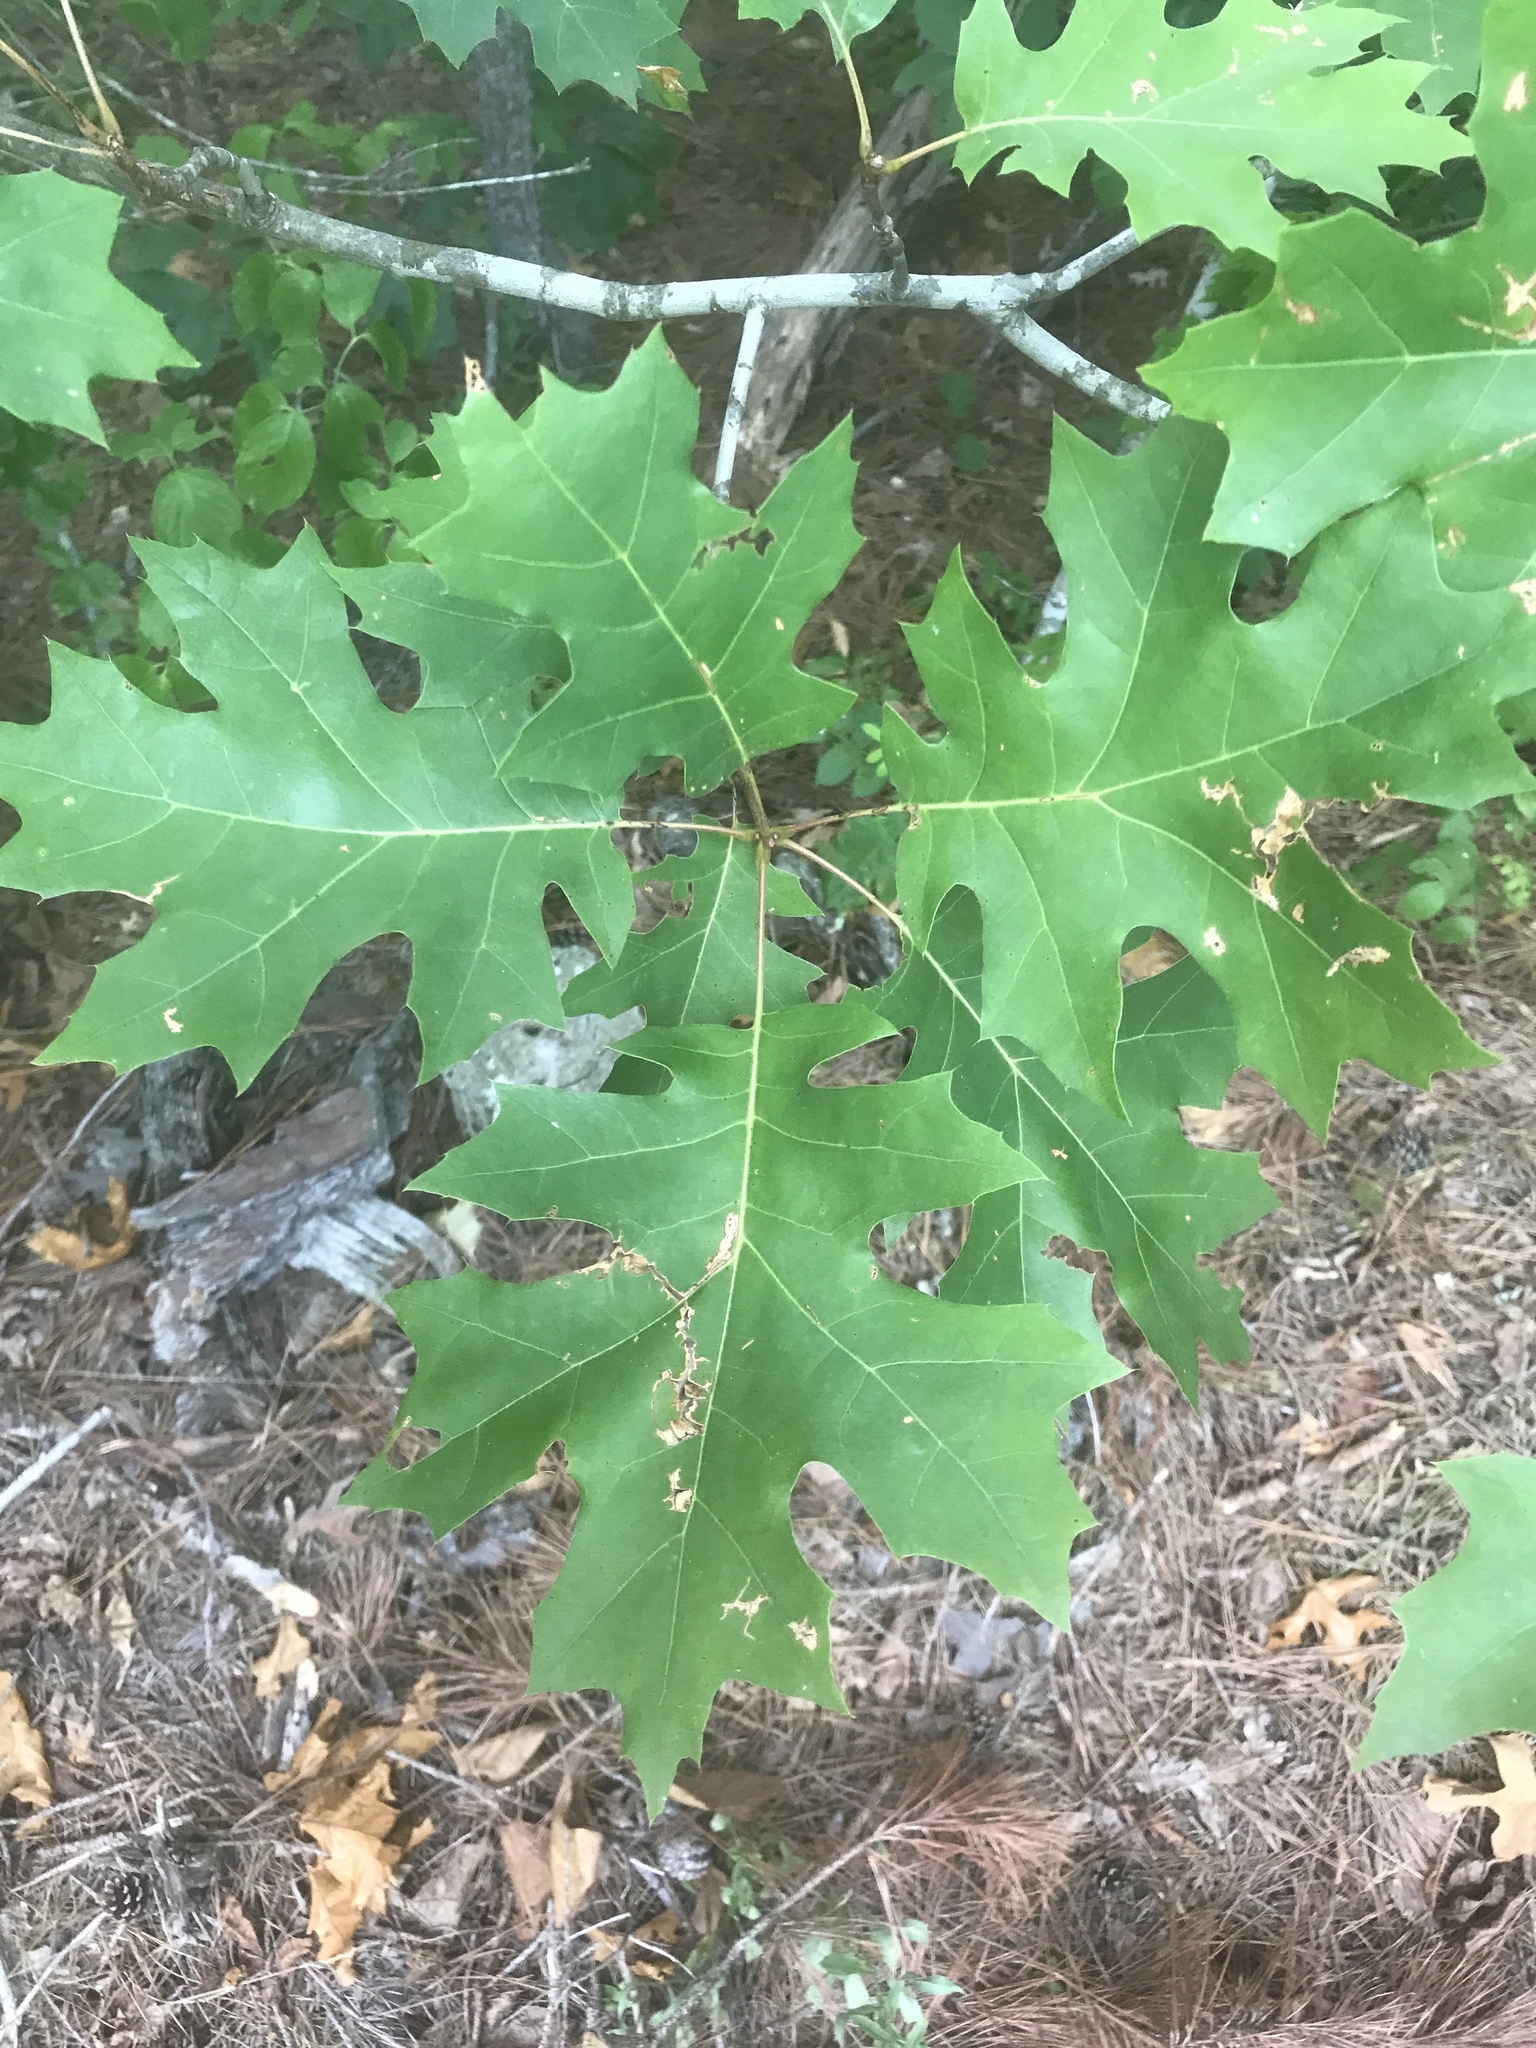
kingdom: Plantae
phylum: Tracheophyta
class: Magnoliopsida
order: Fagales
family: Fagaceae
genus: Quercus
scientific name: Quercus coccinea
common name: Scarlet oak
